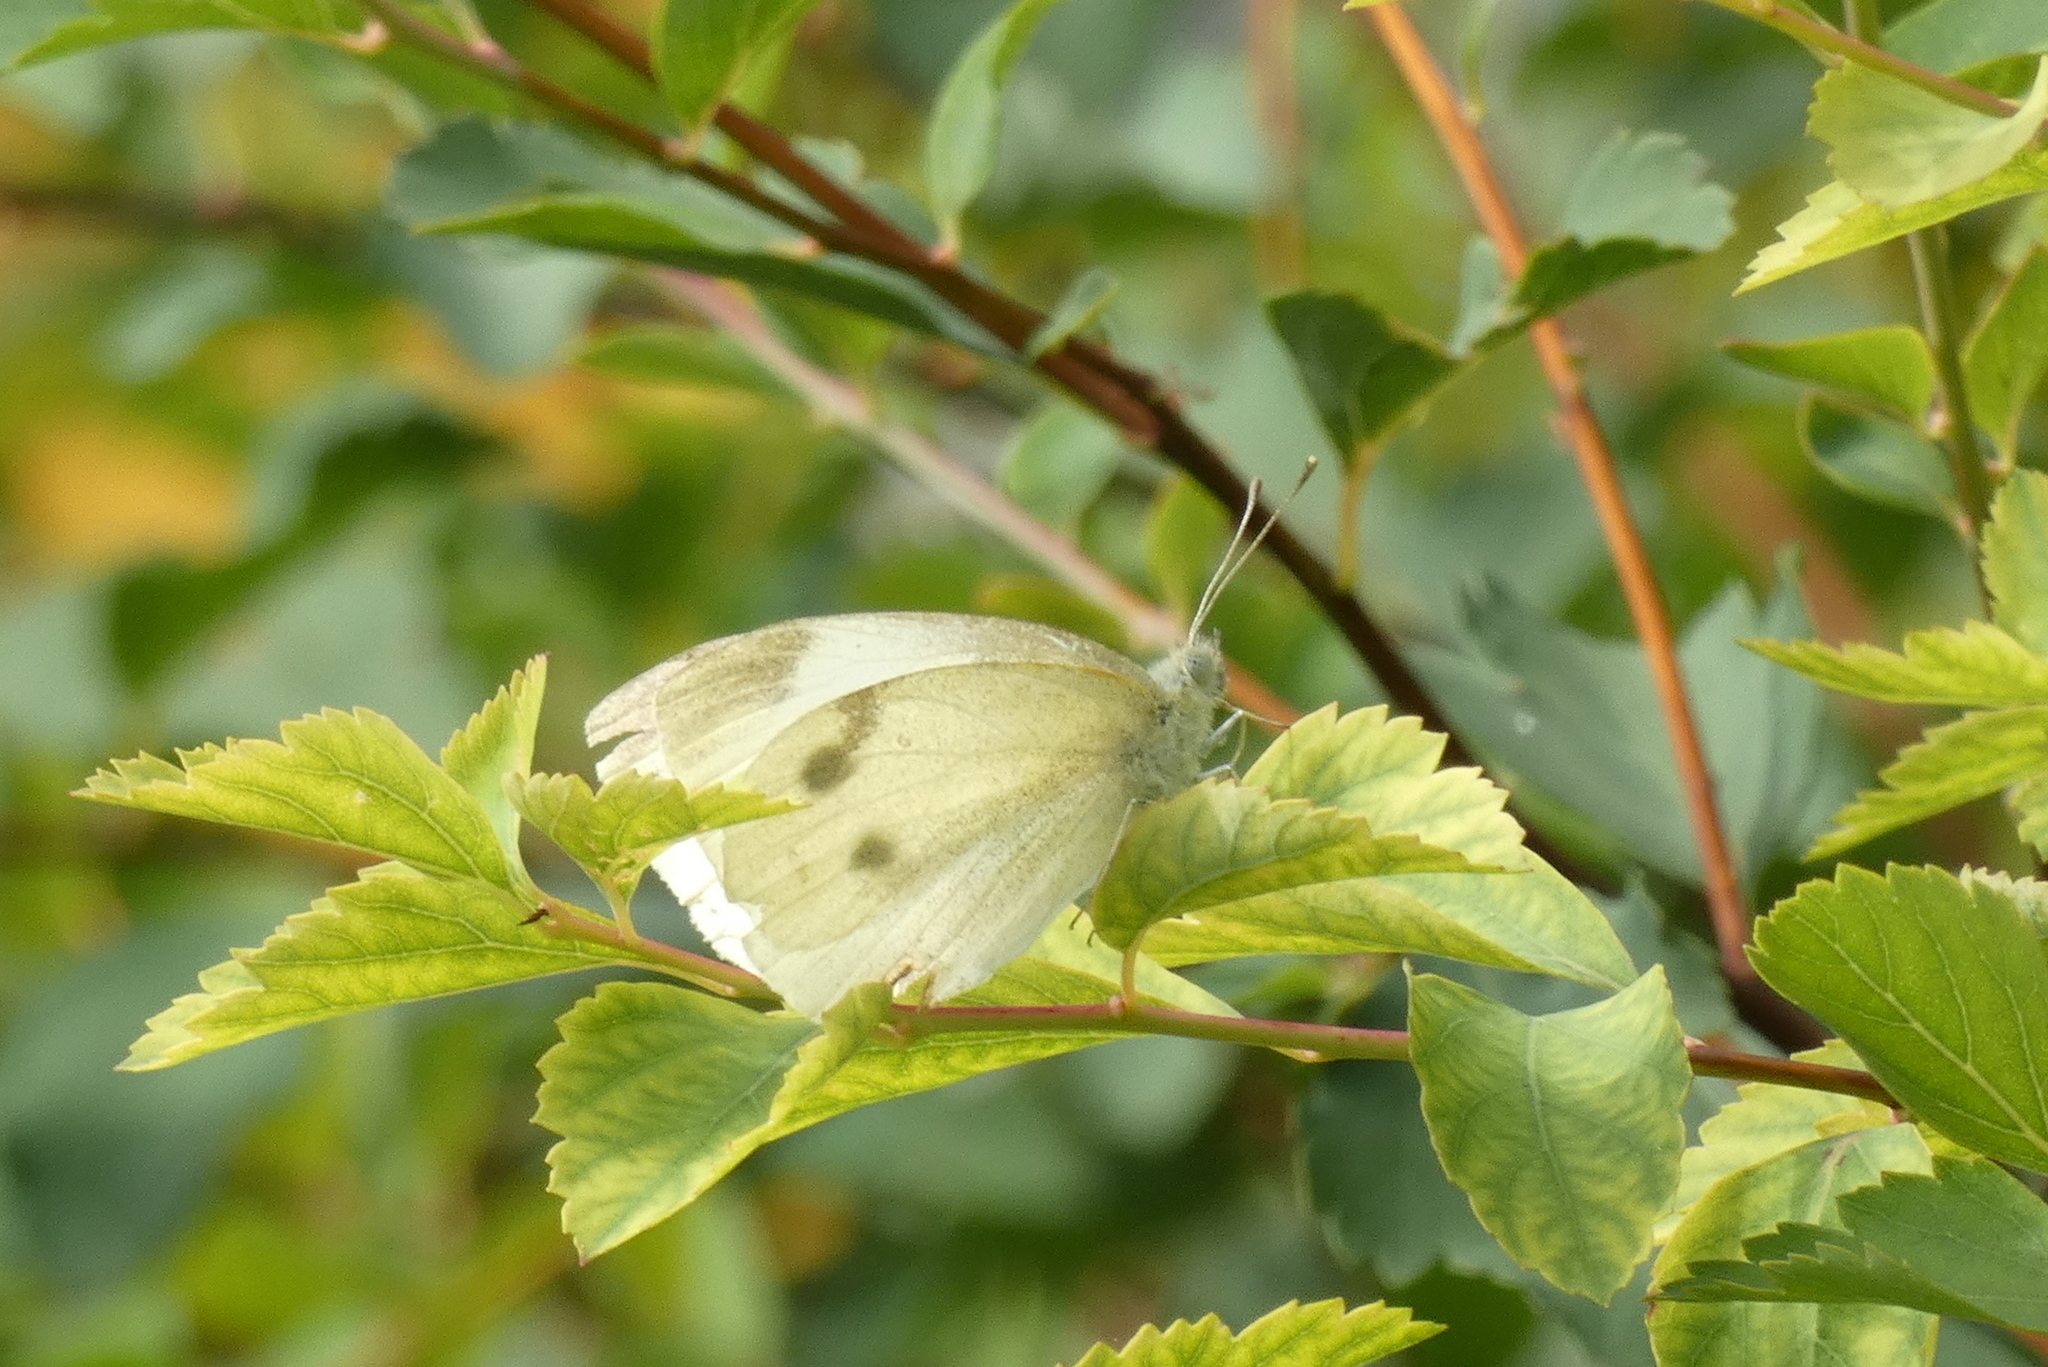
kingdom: Animalia
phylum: Arthropoda
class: Insecta
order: Lepidoptera
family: Pieridae
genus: Pieris
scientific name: Pieris rapae
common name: Small white
